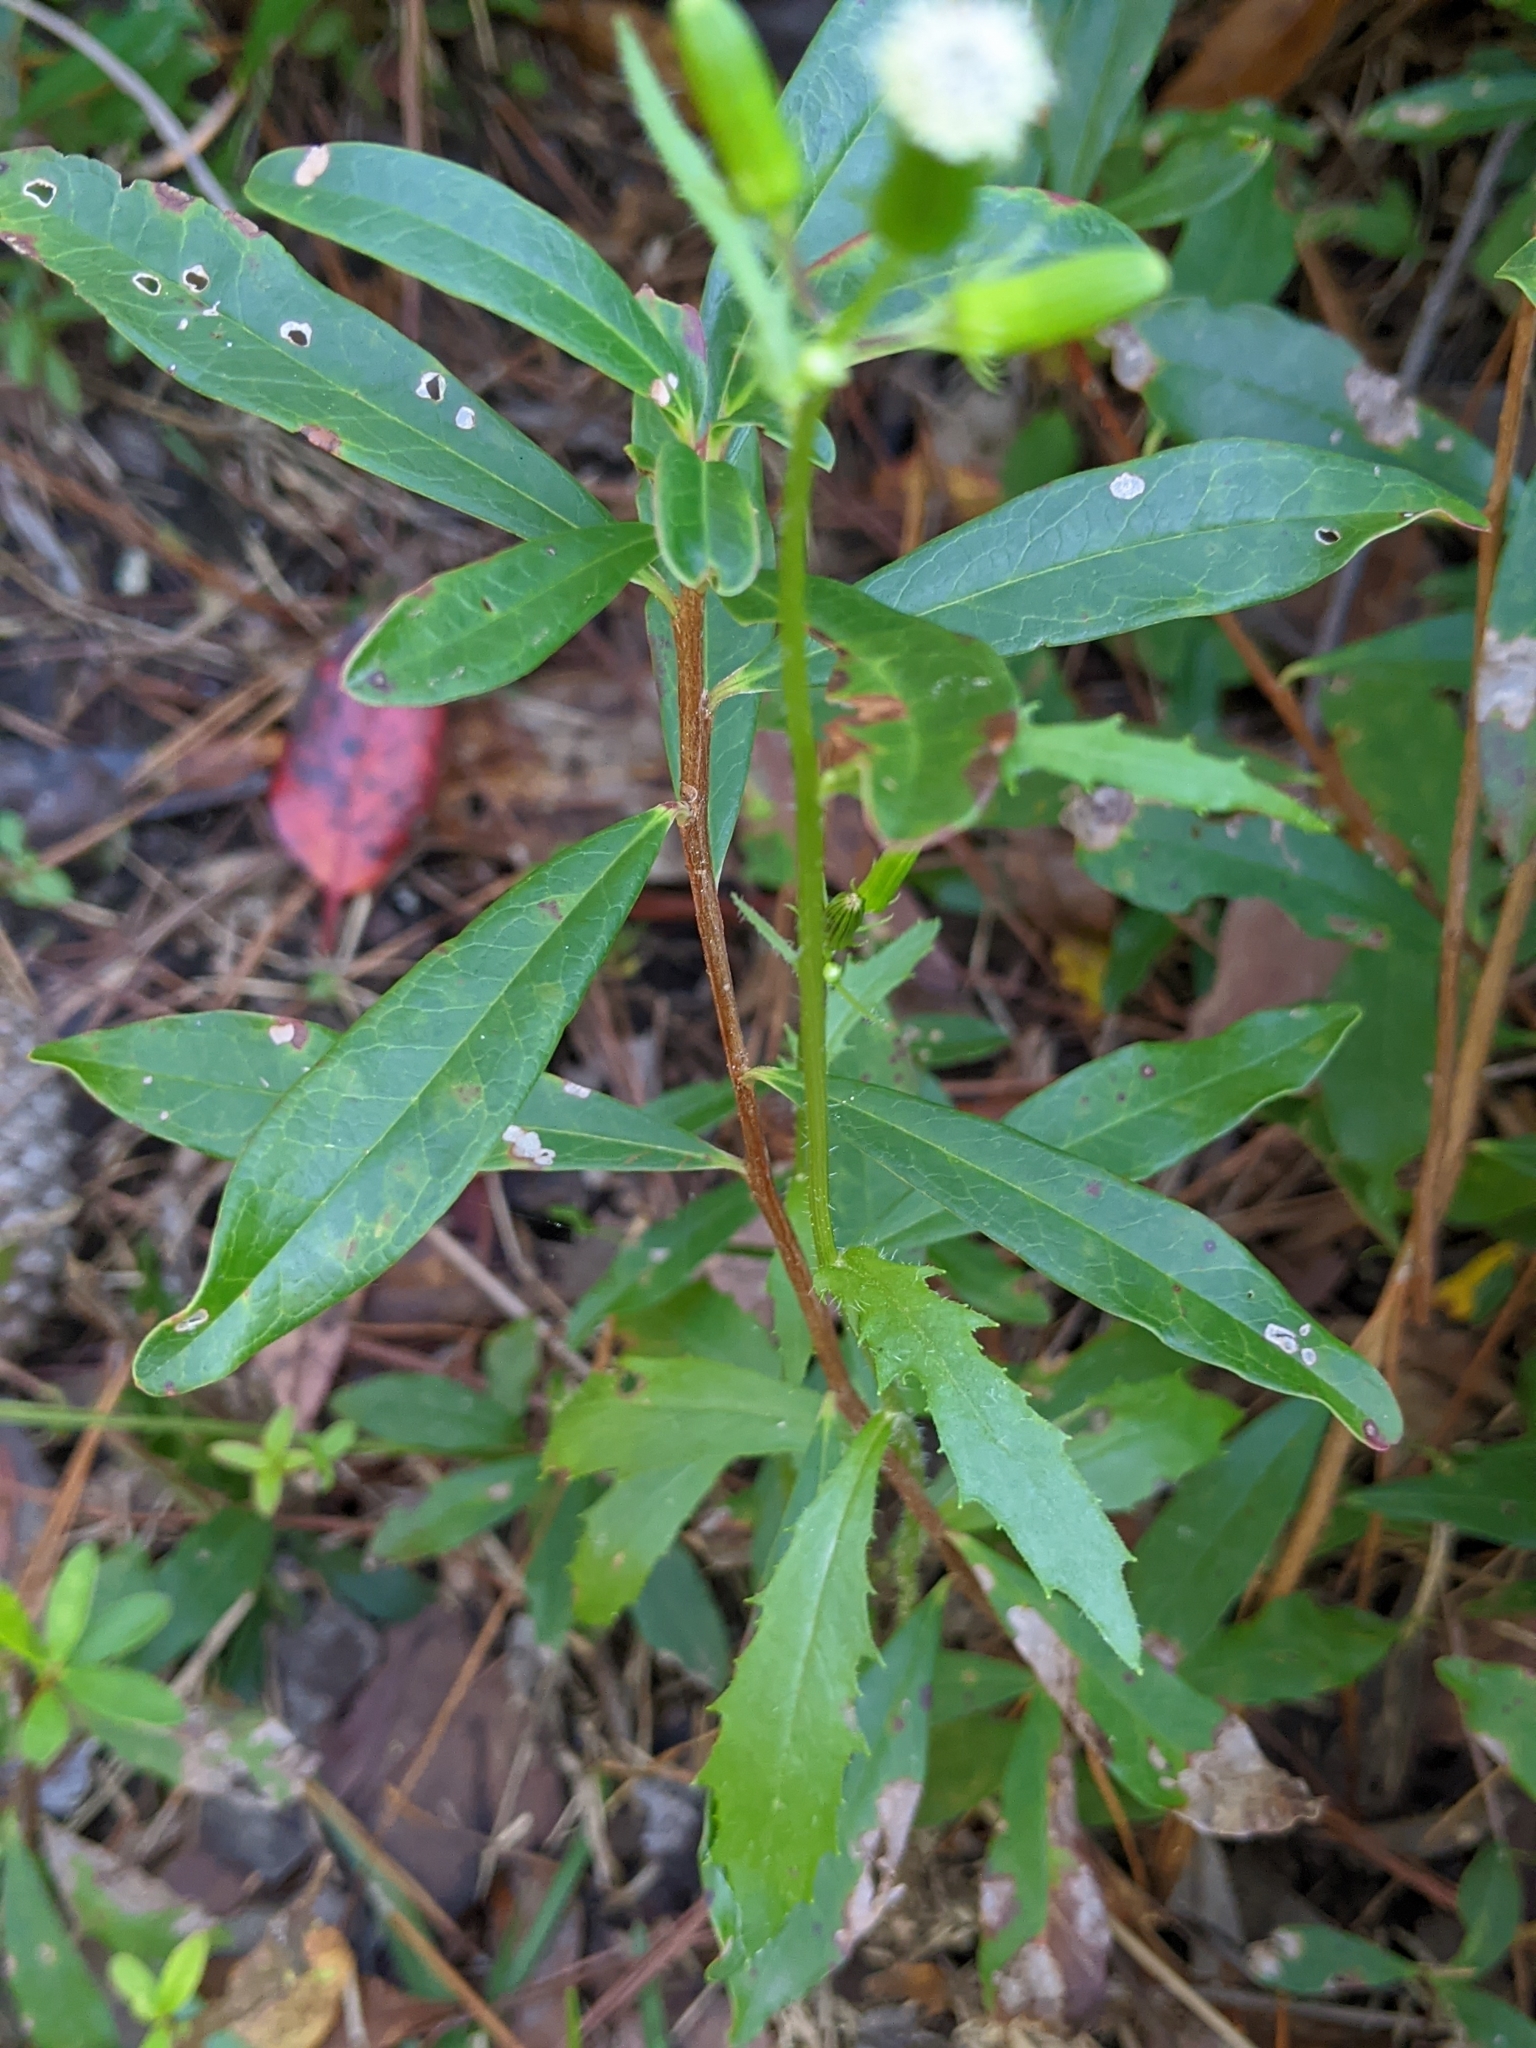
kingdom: Plantae
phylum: Tracheophyta
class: Magnoliopsida
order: Asterales
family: Asteraceae
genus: Erechtites
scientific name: Erechtites hieraciifolius
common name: American burnweed
